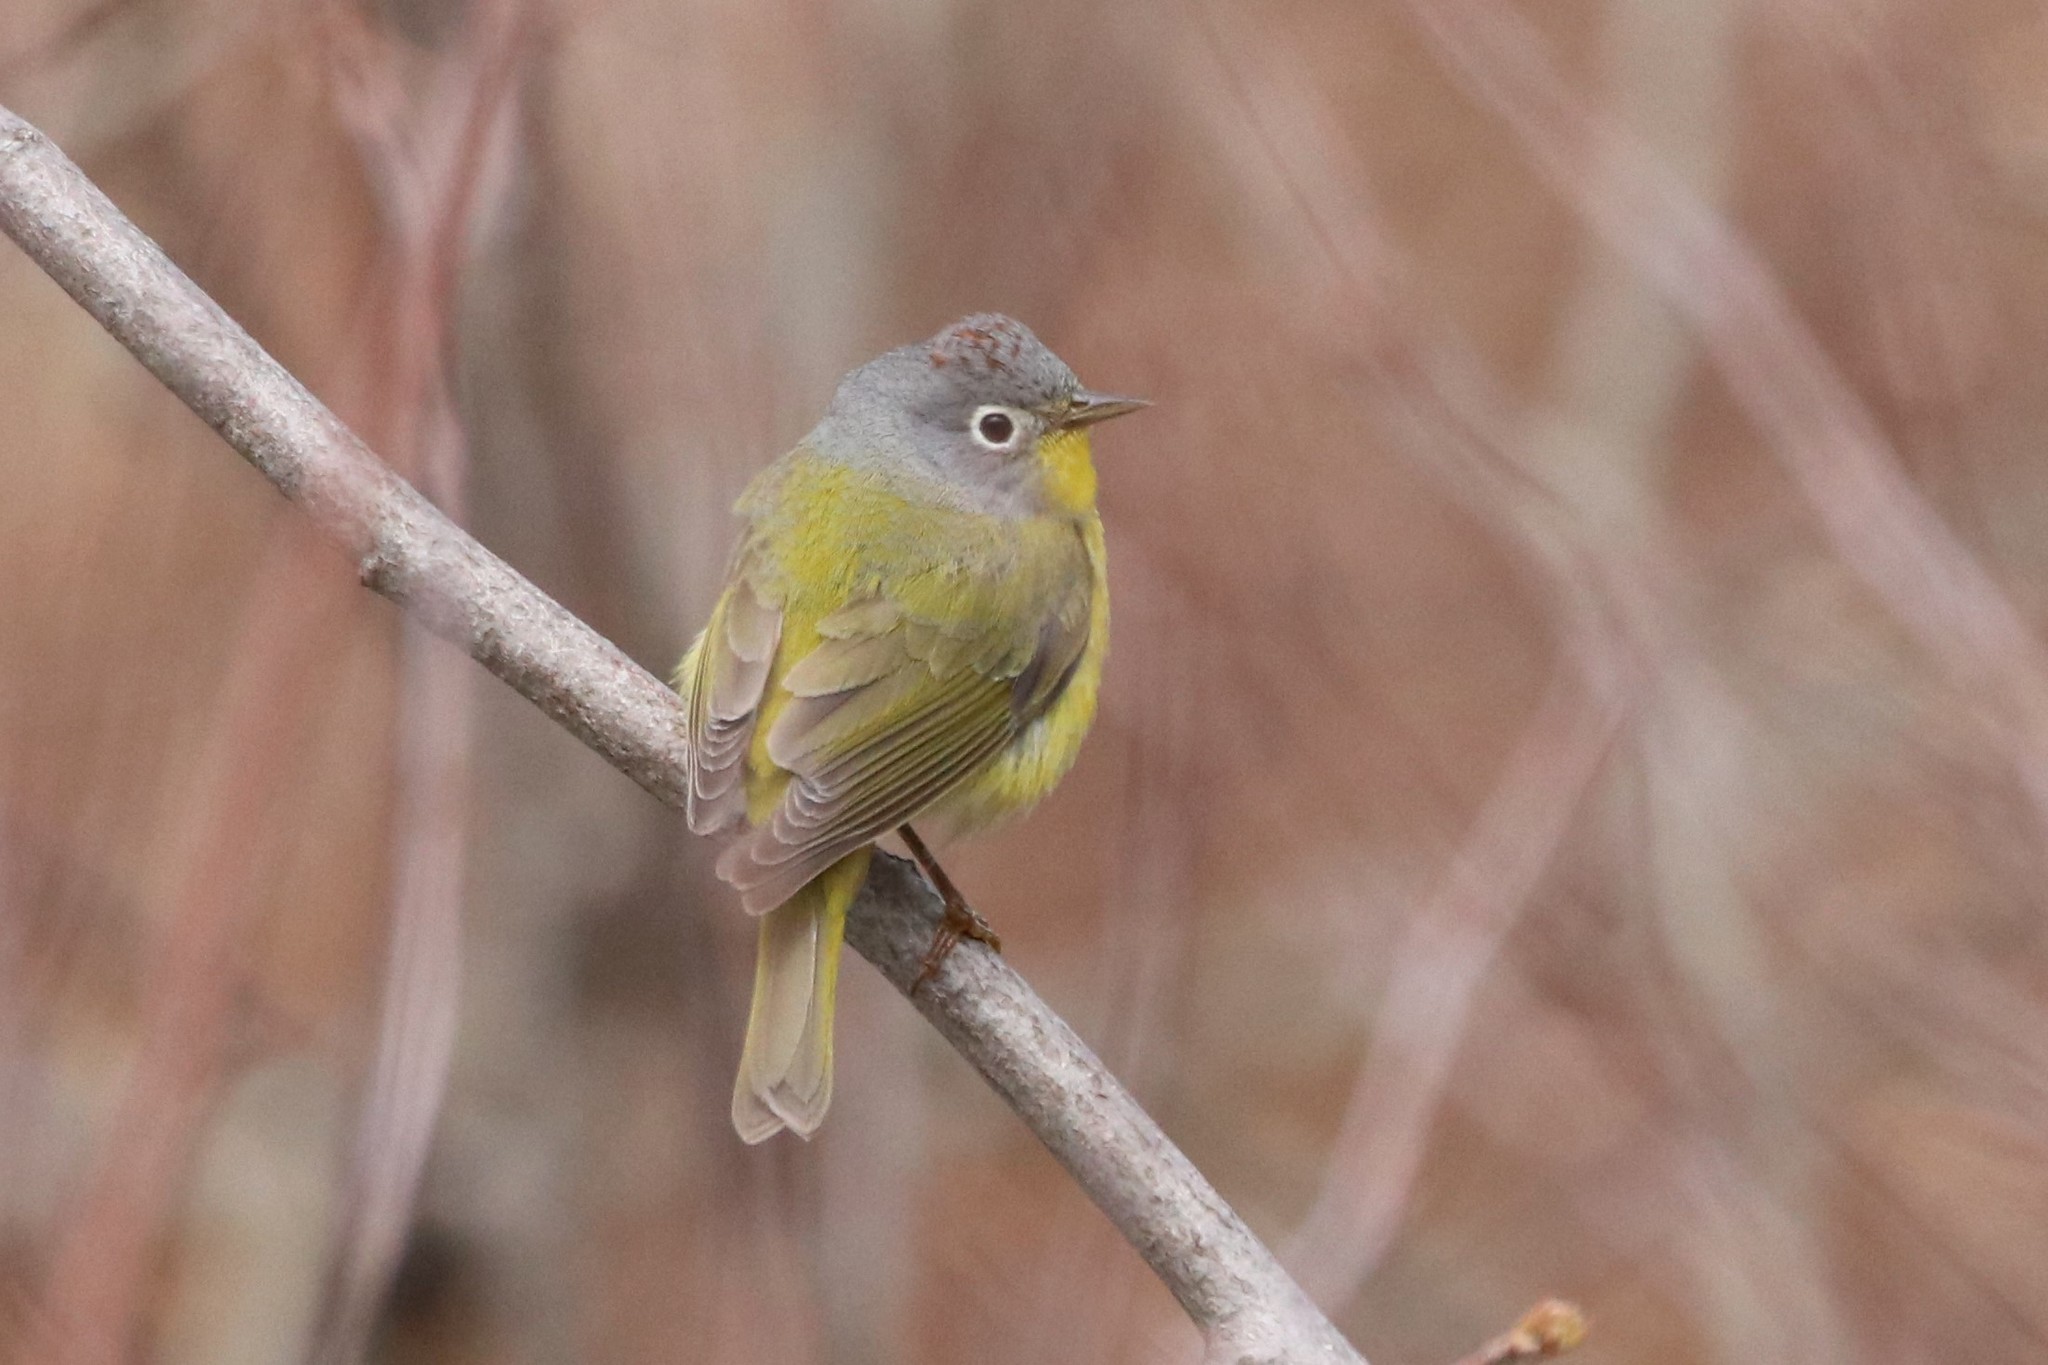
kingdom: Animalia
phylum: Chordata
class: Aves
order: Passeriformes
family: Parulidae
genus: Leiothlypis
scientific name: Leiothlypis ruficapilla
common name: Nashville warbler
